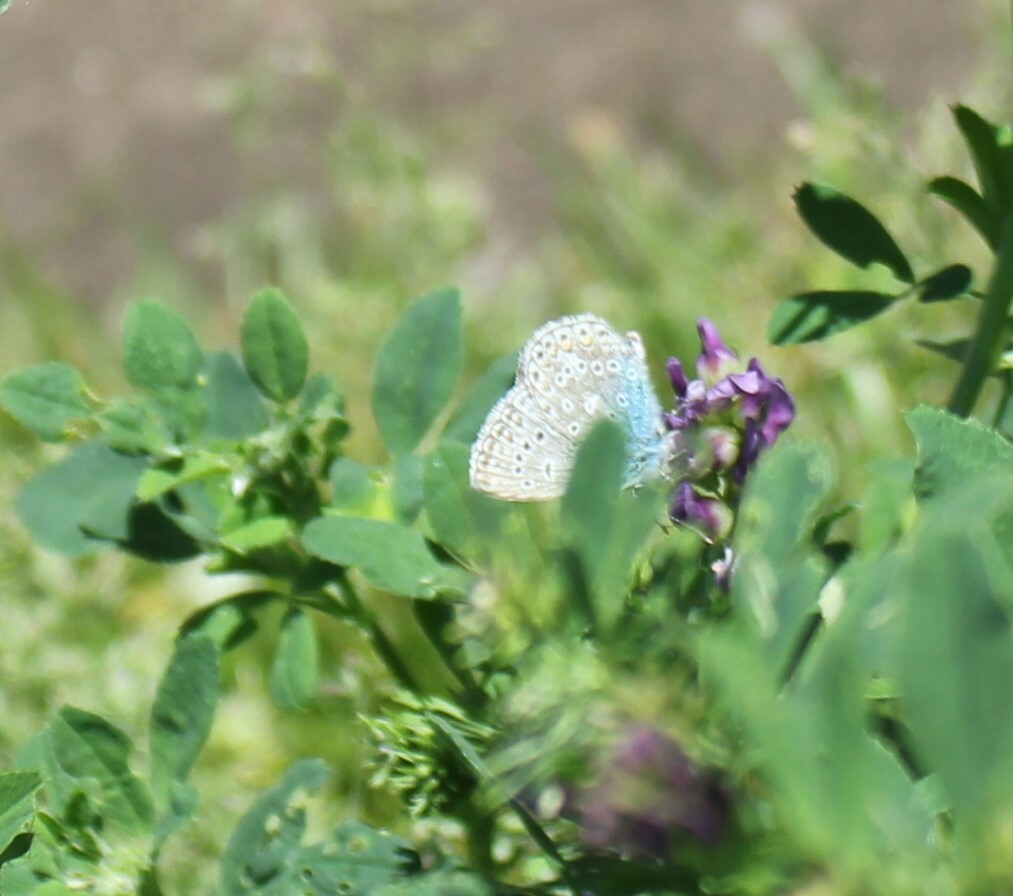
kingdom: Animalia
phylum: Arthropoda
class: Insecta
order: Lepidoptera
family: Lycaenidae
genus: Polyommatus
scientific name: Polyommatus icarus
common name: Common blue
